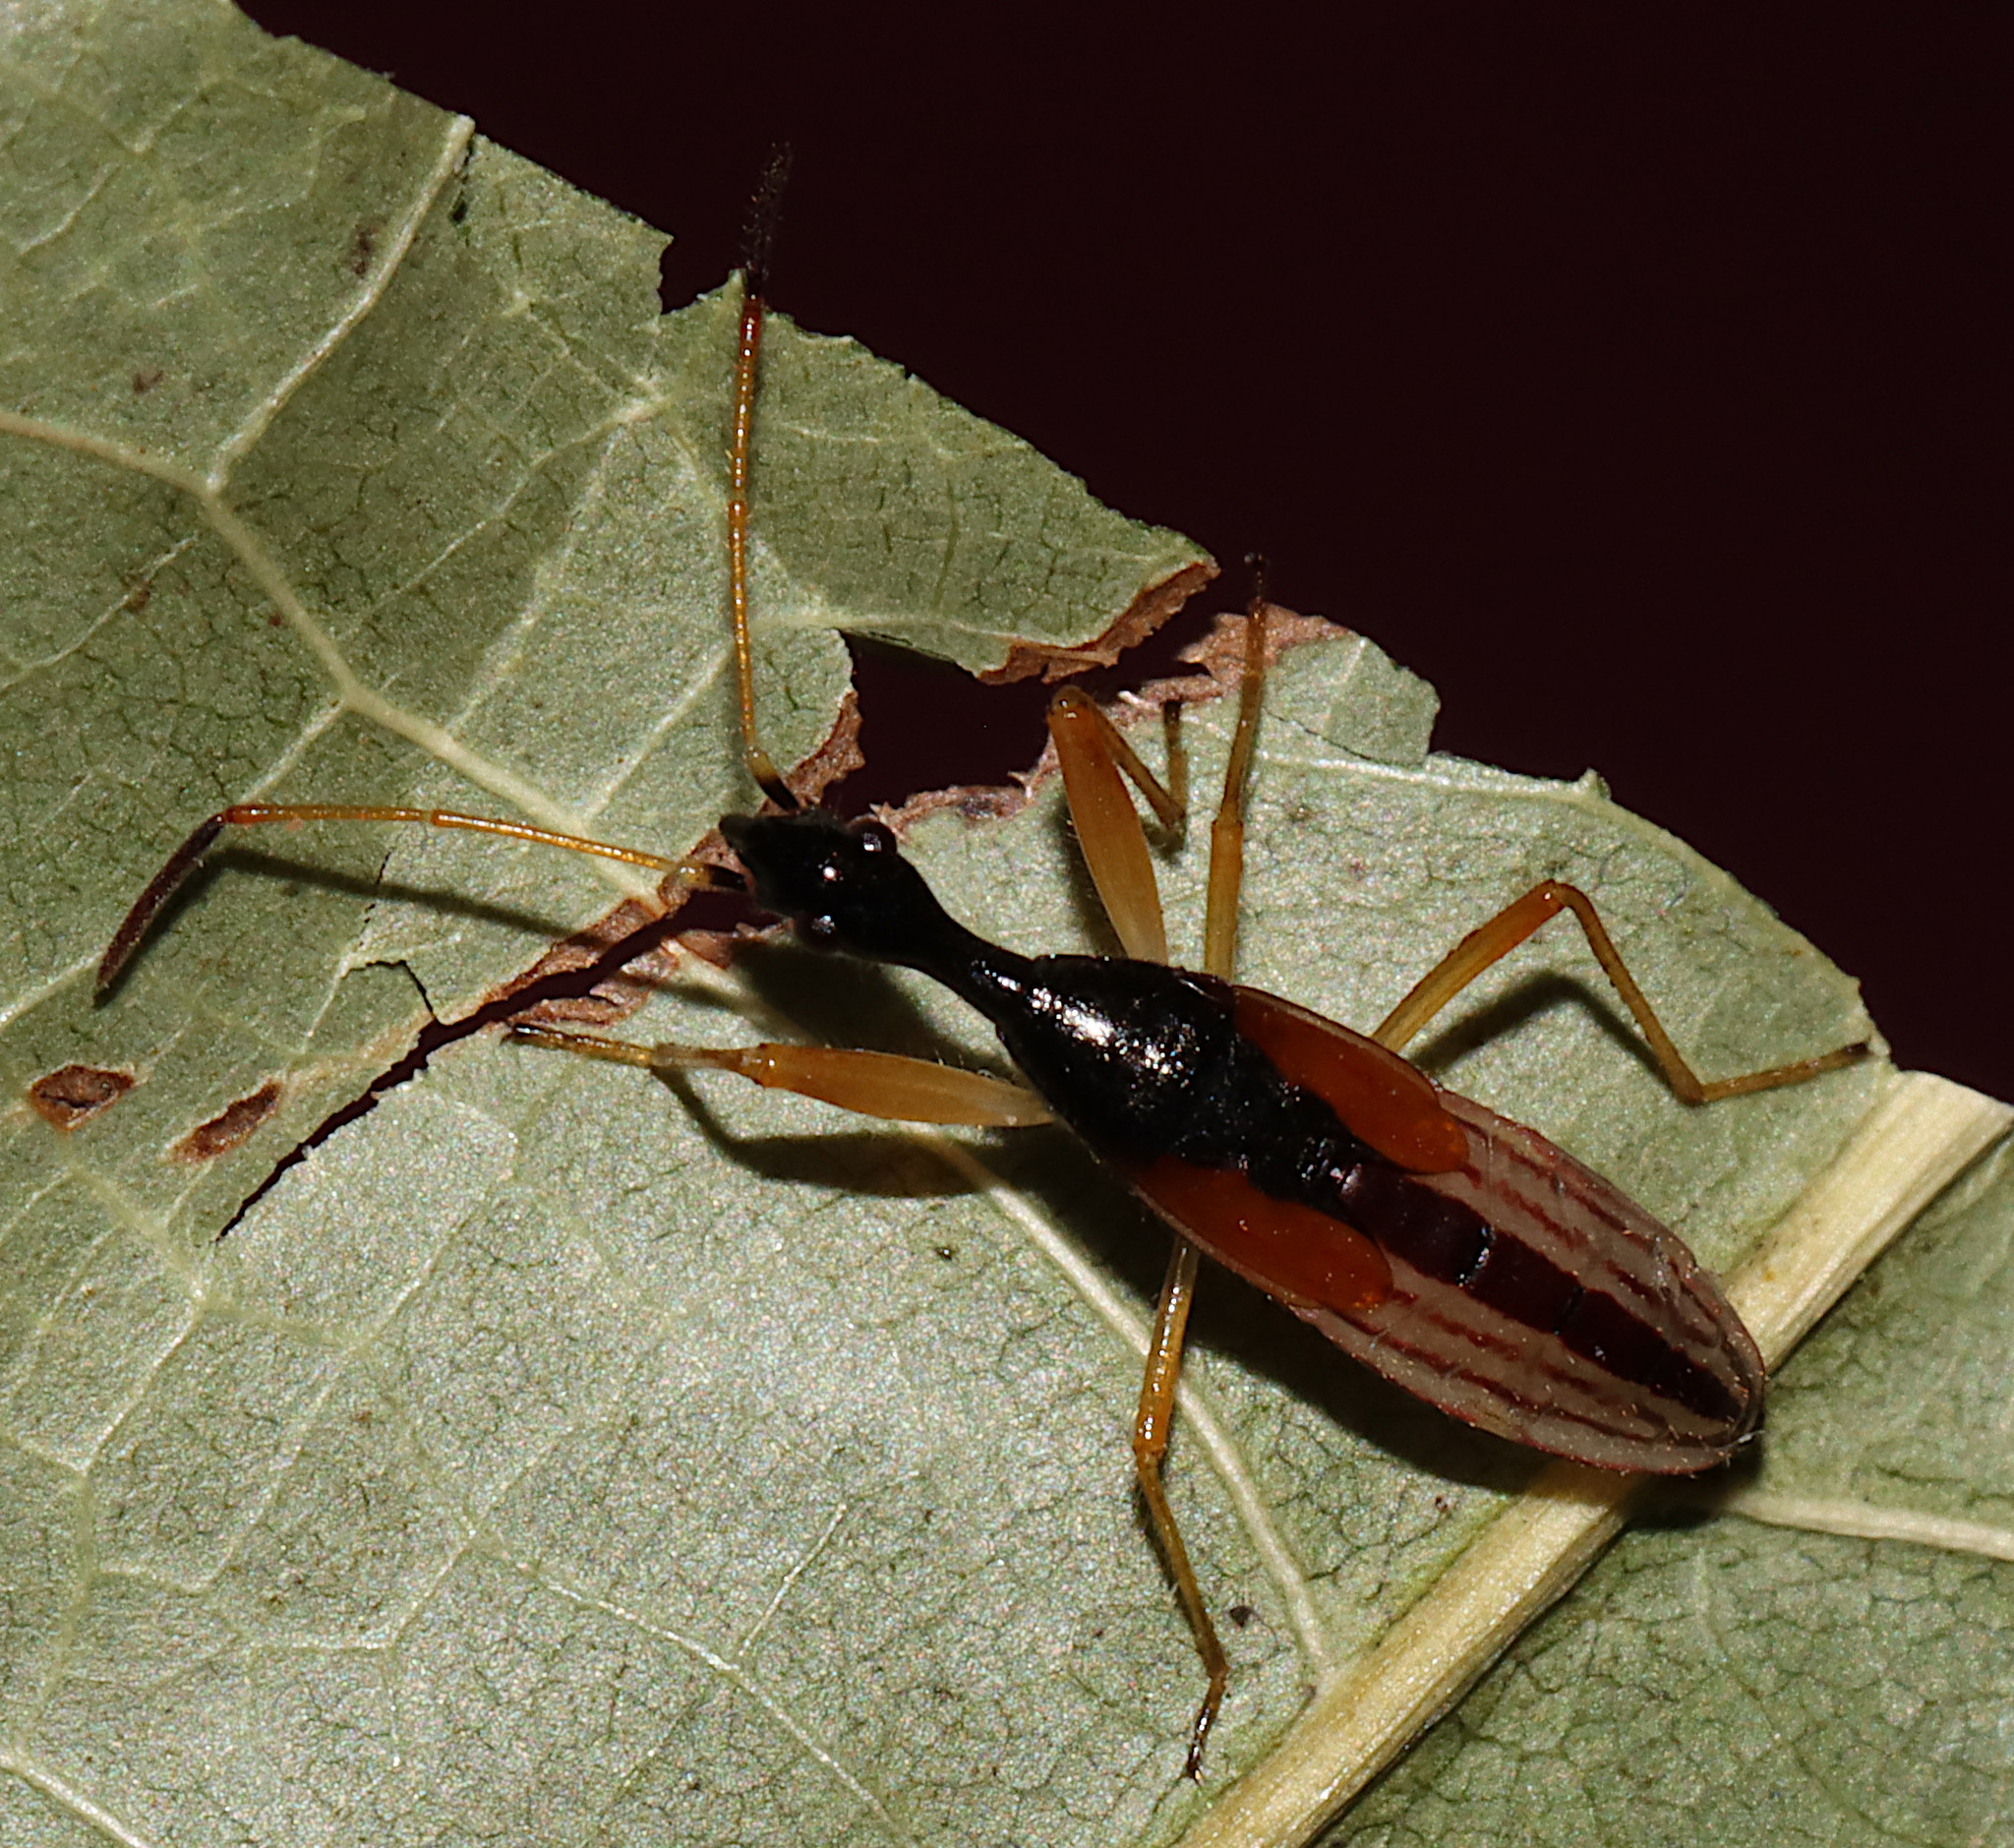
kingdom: Animalia
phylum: Arthropoda
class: Insecta
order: Hemiptera
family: Rhyparochromidae
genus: Myodocha
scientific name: Myodocha serripes
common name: Long-necked seed bug
